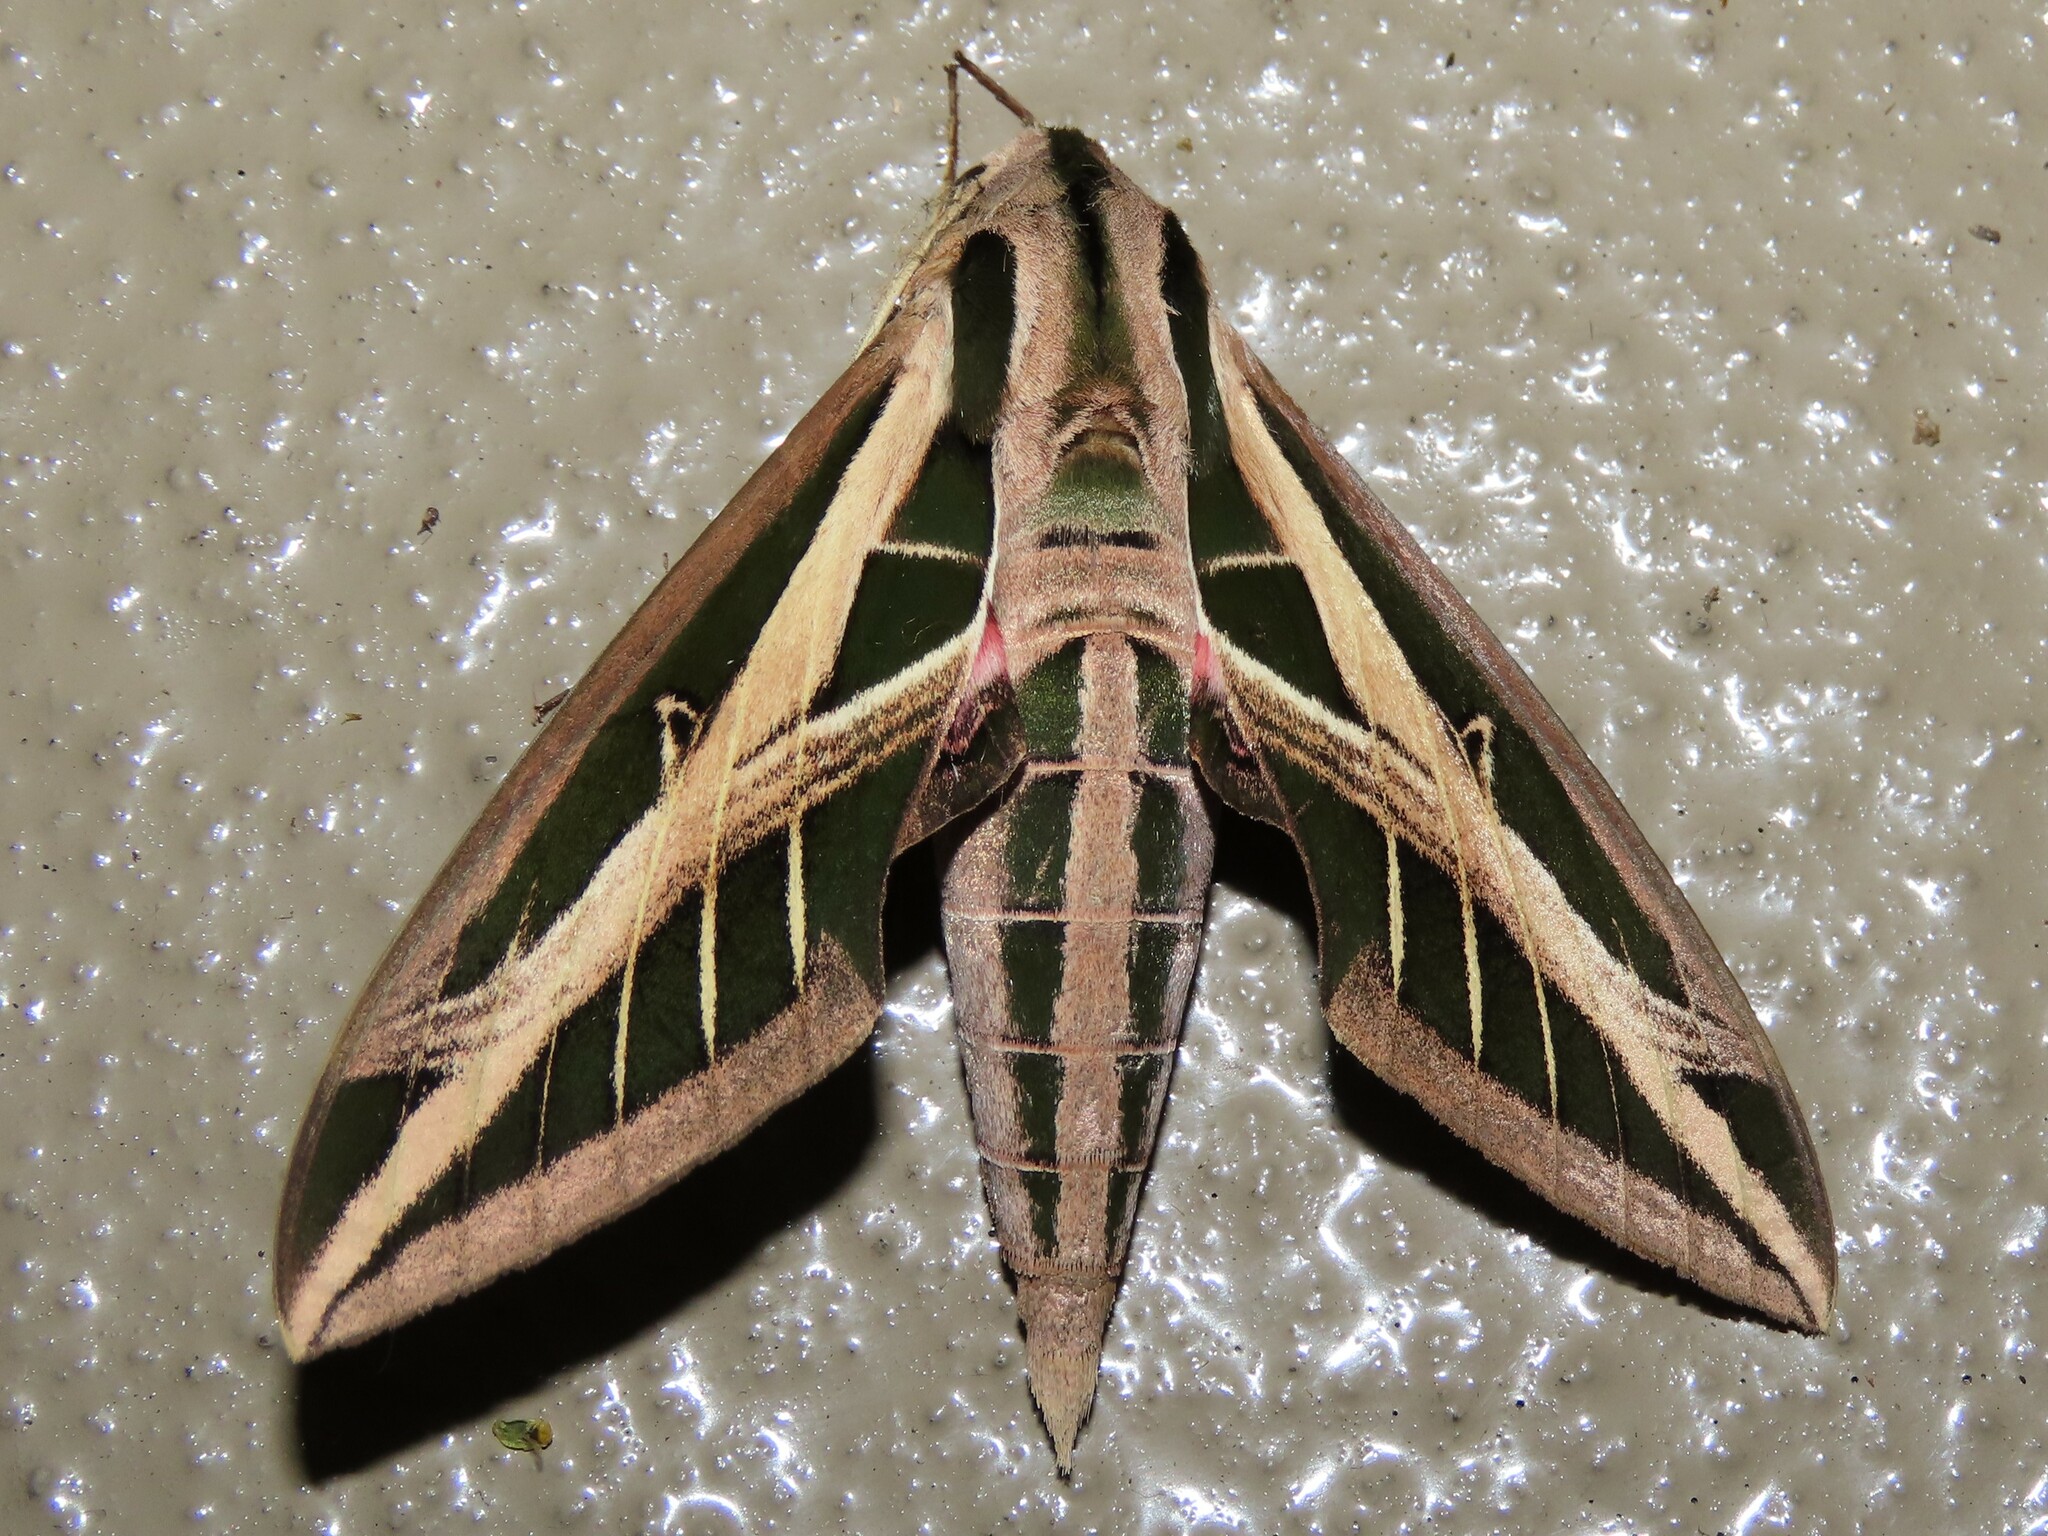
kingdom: Animalia
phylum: Arthropoda
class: Insecta
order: Lepidoptera
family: Sphingidae
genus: Eumorpha
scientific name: Eumorpha fasciatus
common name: Banded sphinx
